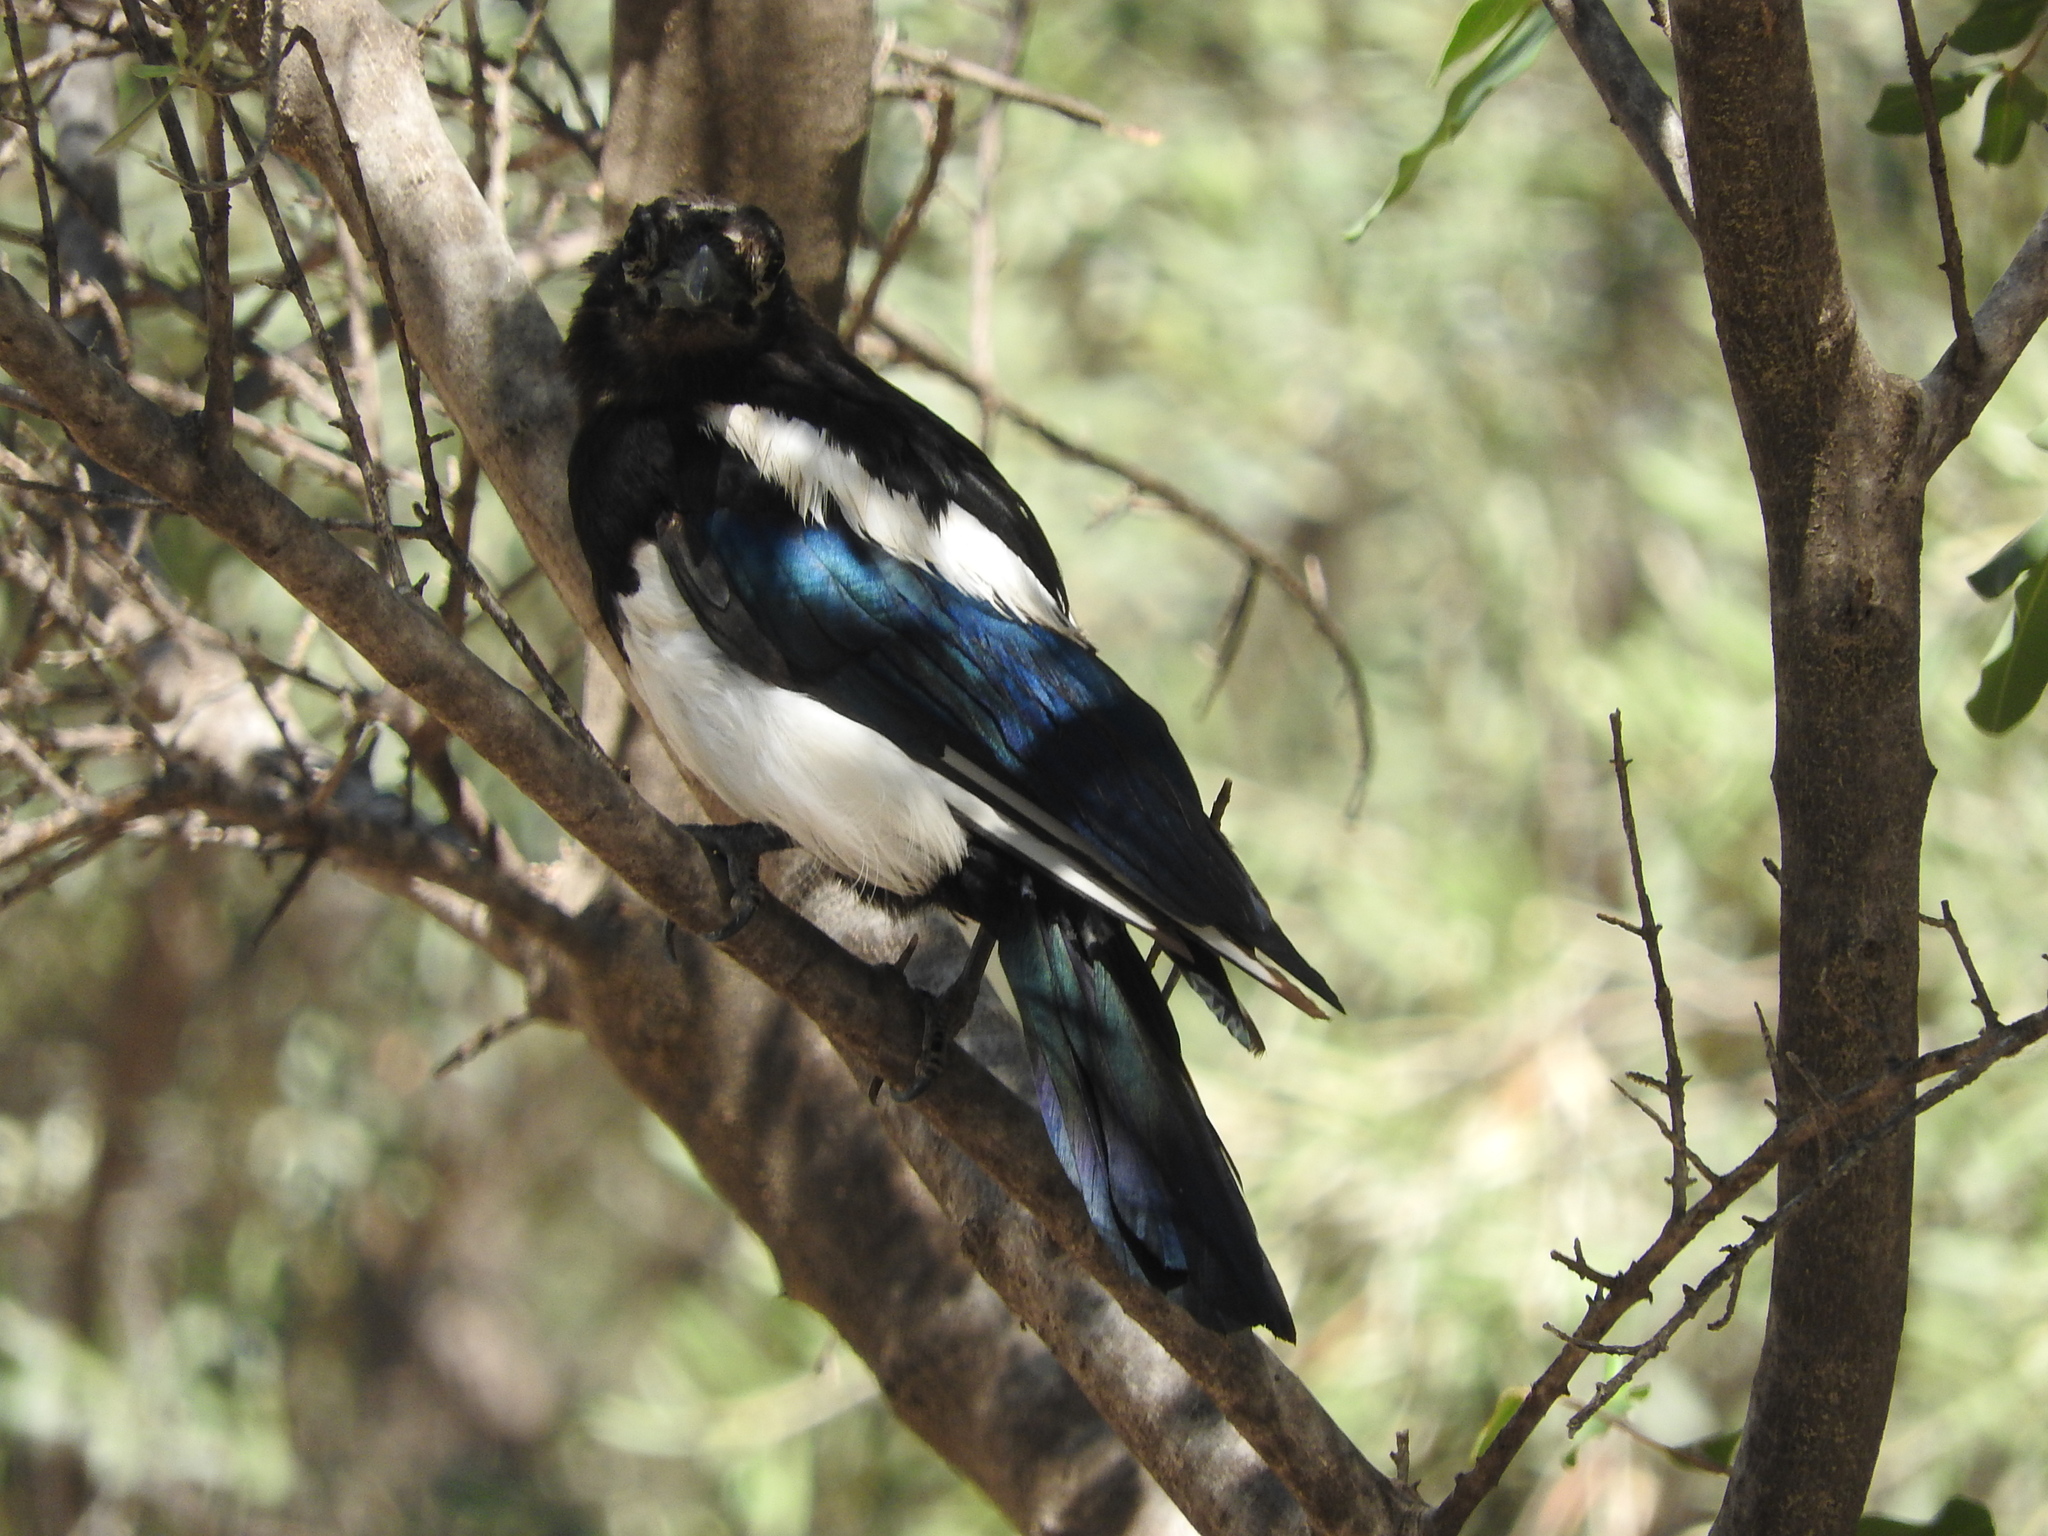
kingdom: Animalia
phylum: Chordata
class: Aves
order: Passeriformes
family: Corvidae
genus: Pica
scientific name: Pica pica
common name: Eurasian magpie
